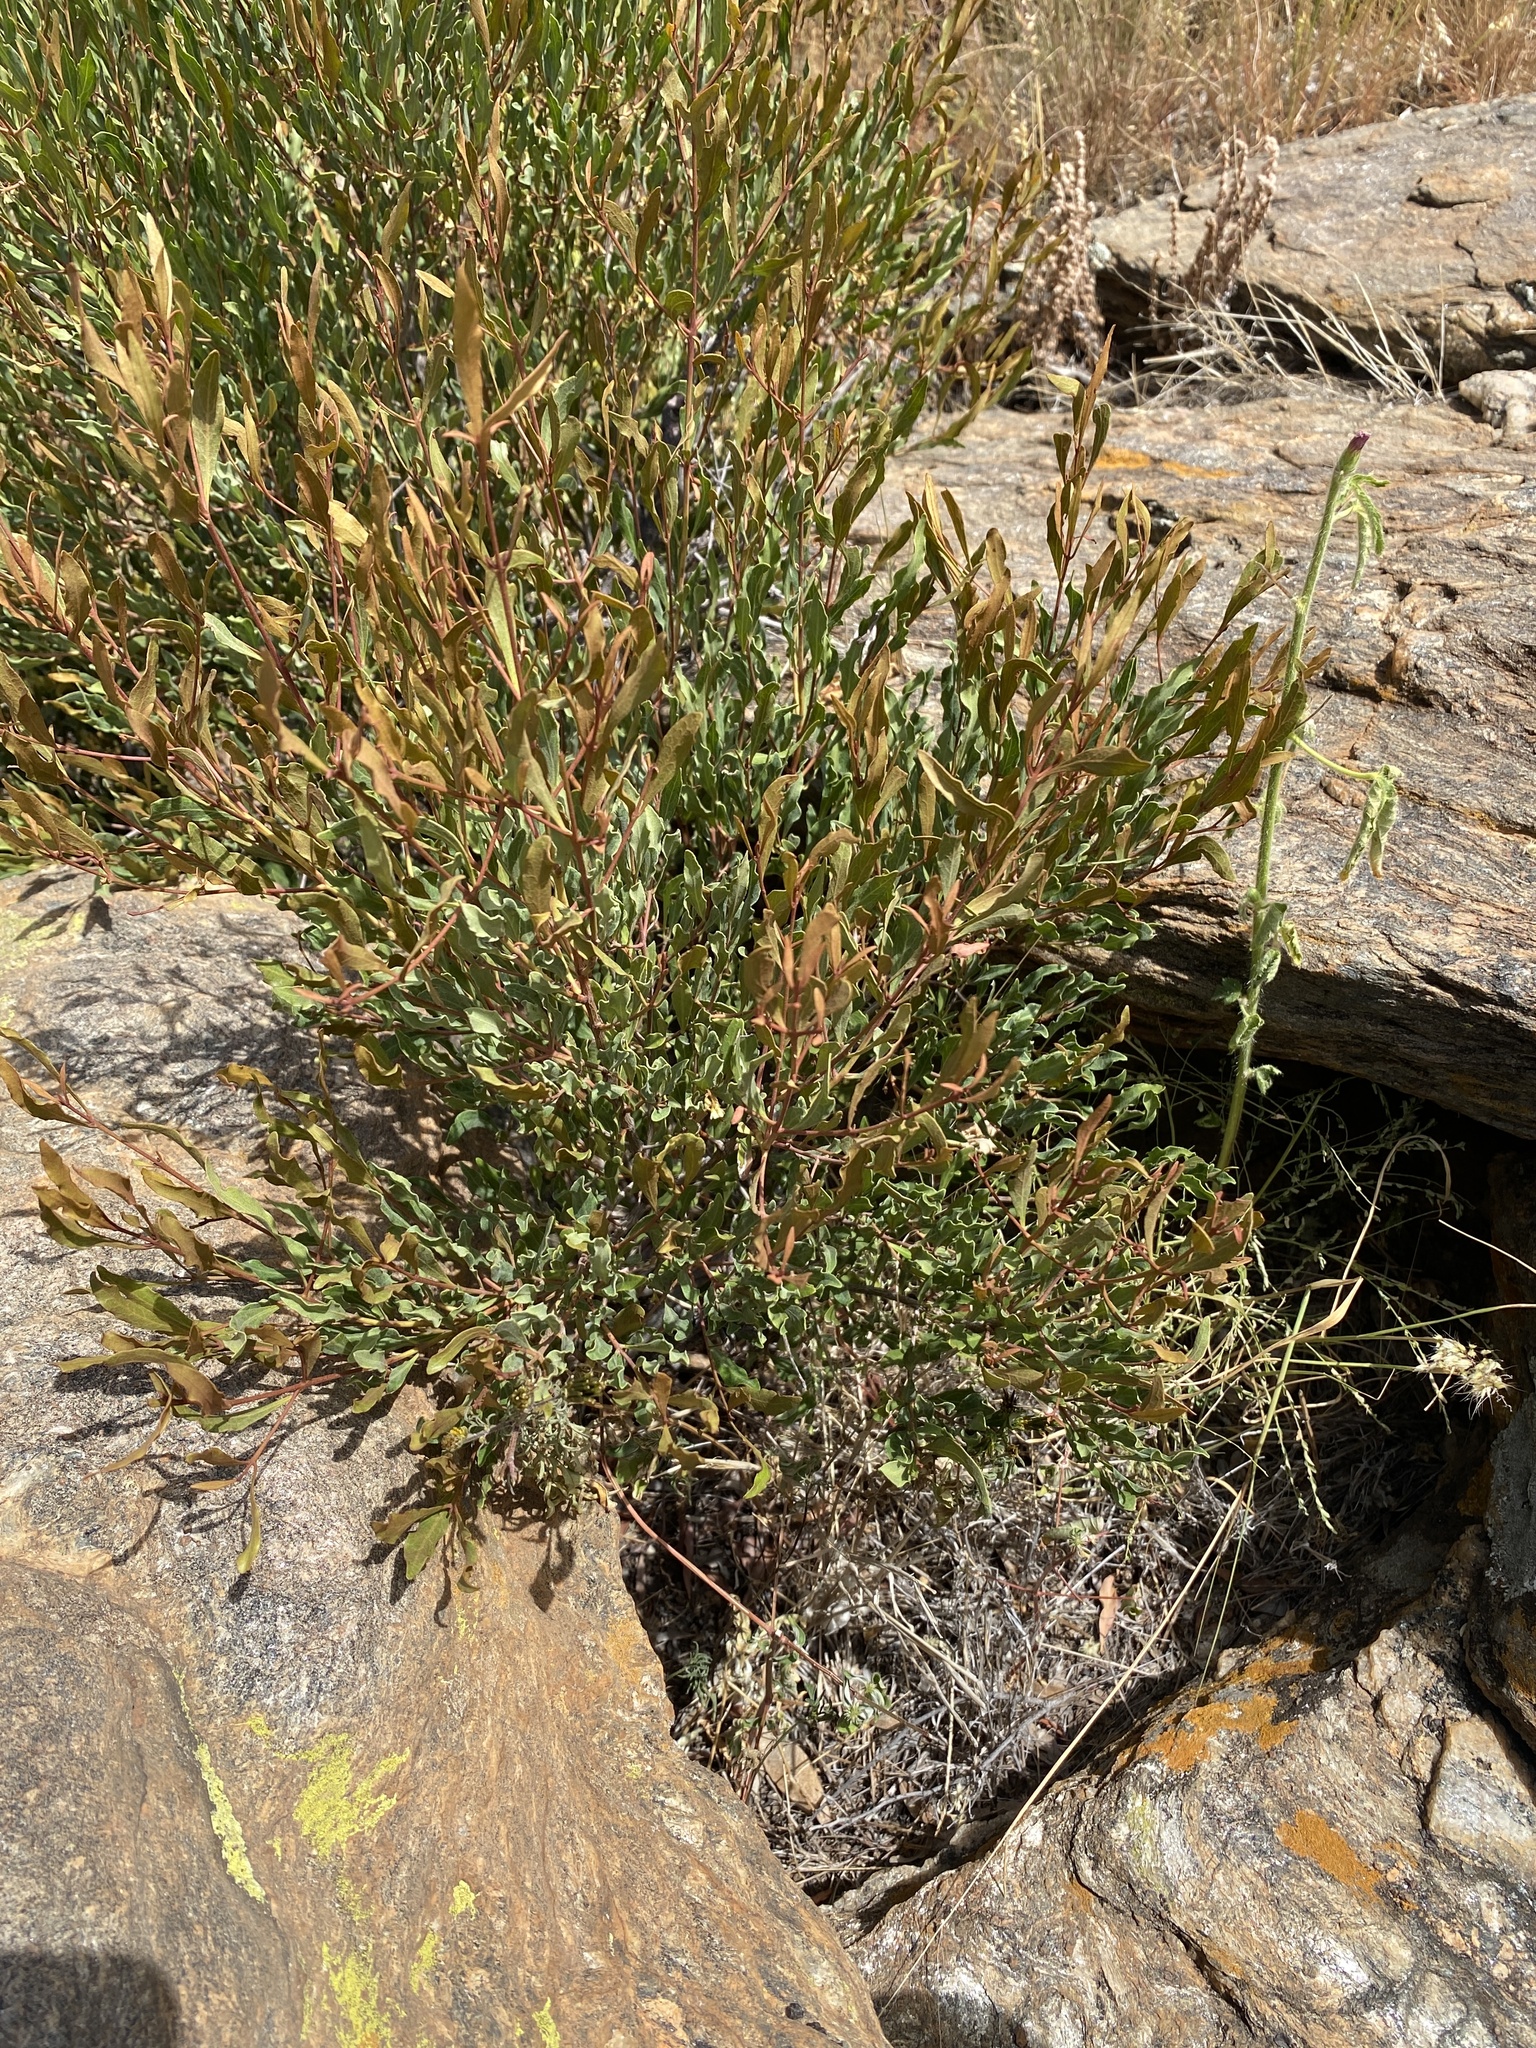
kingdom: Plantae
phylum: Tracheophyta
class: Magnoliopsida
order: Malpighiales
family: Euphorbiaceae
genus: Croton
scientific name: Croton gratissimus
